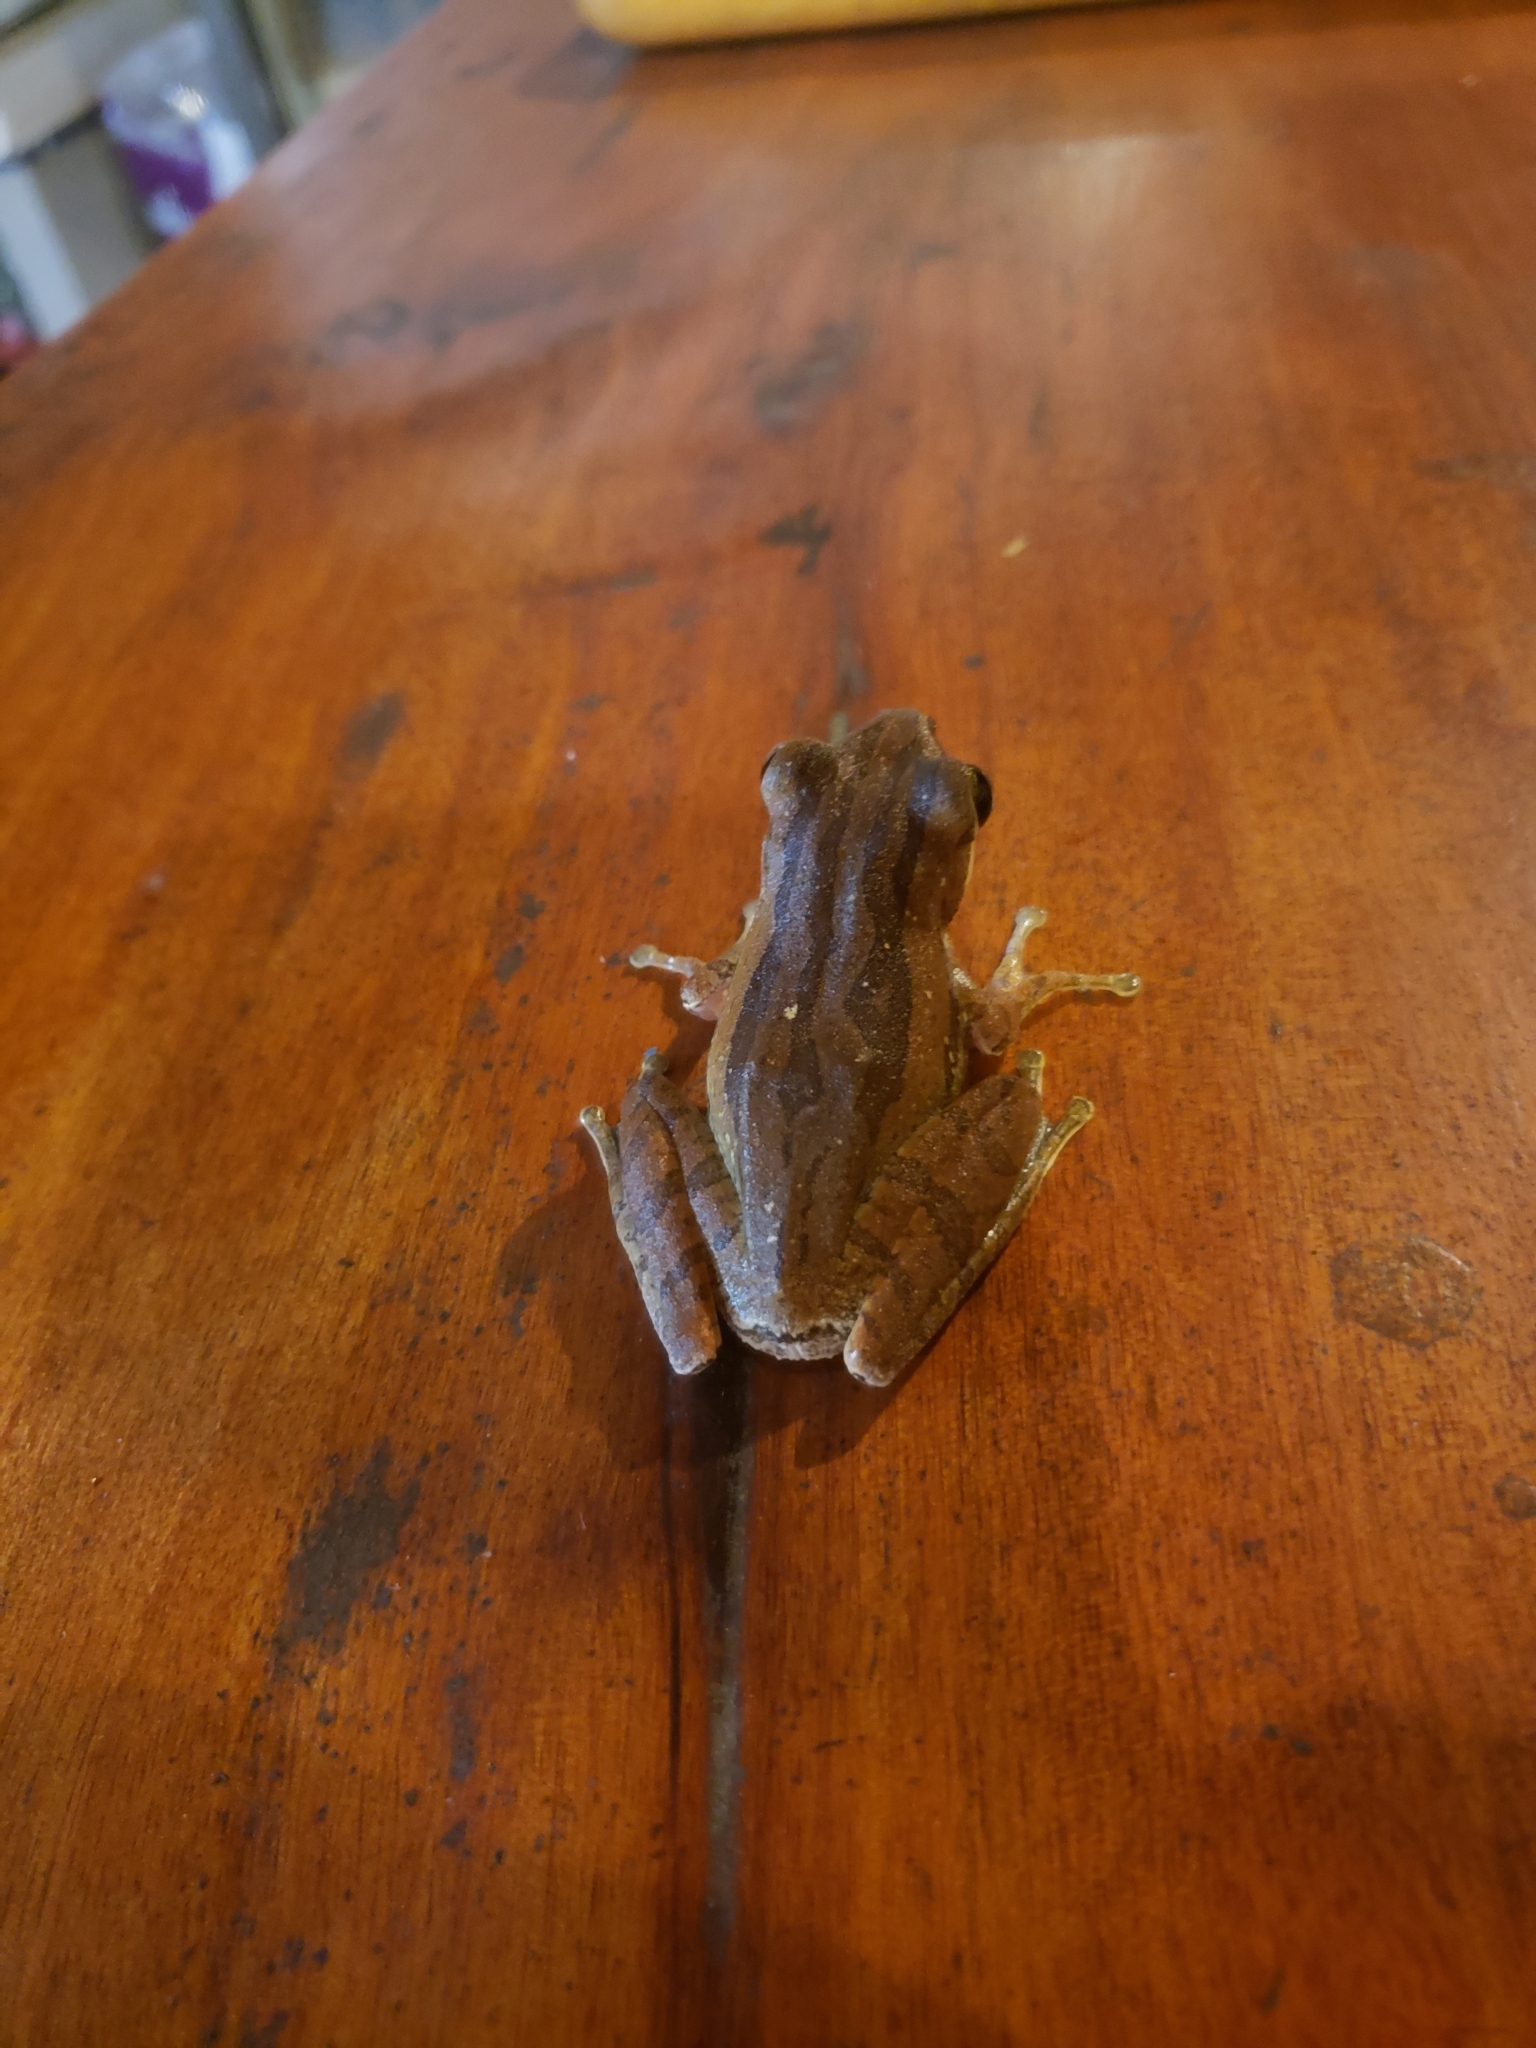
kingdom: Animalia
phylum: Chordata
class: Amphibia
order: Anura
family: Rhacophoridae
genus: Polypedates
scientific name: Polypedates leucomystax
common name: Common tree frog/four-lined tree frog
